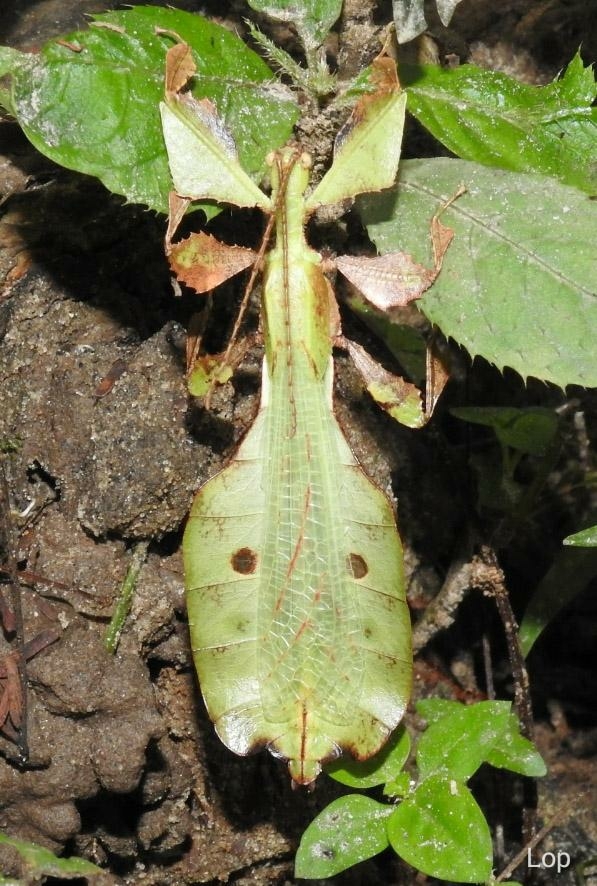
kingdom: Animalia
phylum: Arthropoda
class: Insecta
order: Phasmida
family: Phylliidae
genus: Pulchriphyllium
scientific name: Pulchriphyllium bioculatum
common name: Gray's leaf insect
